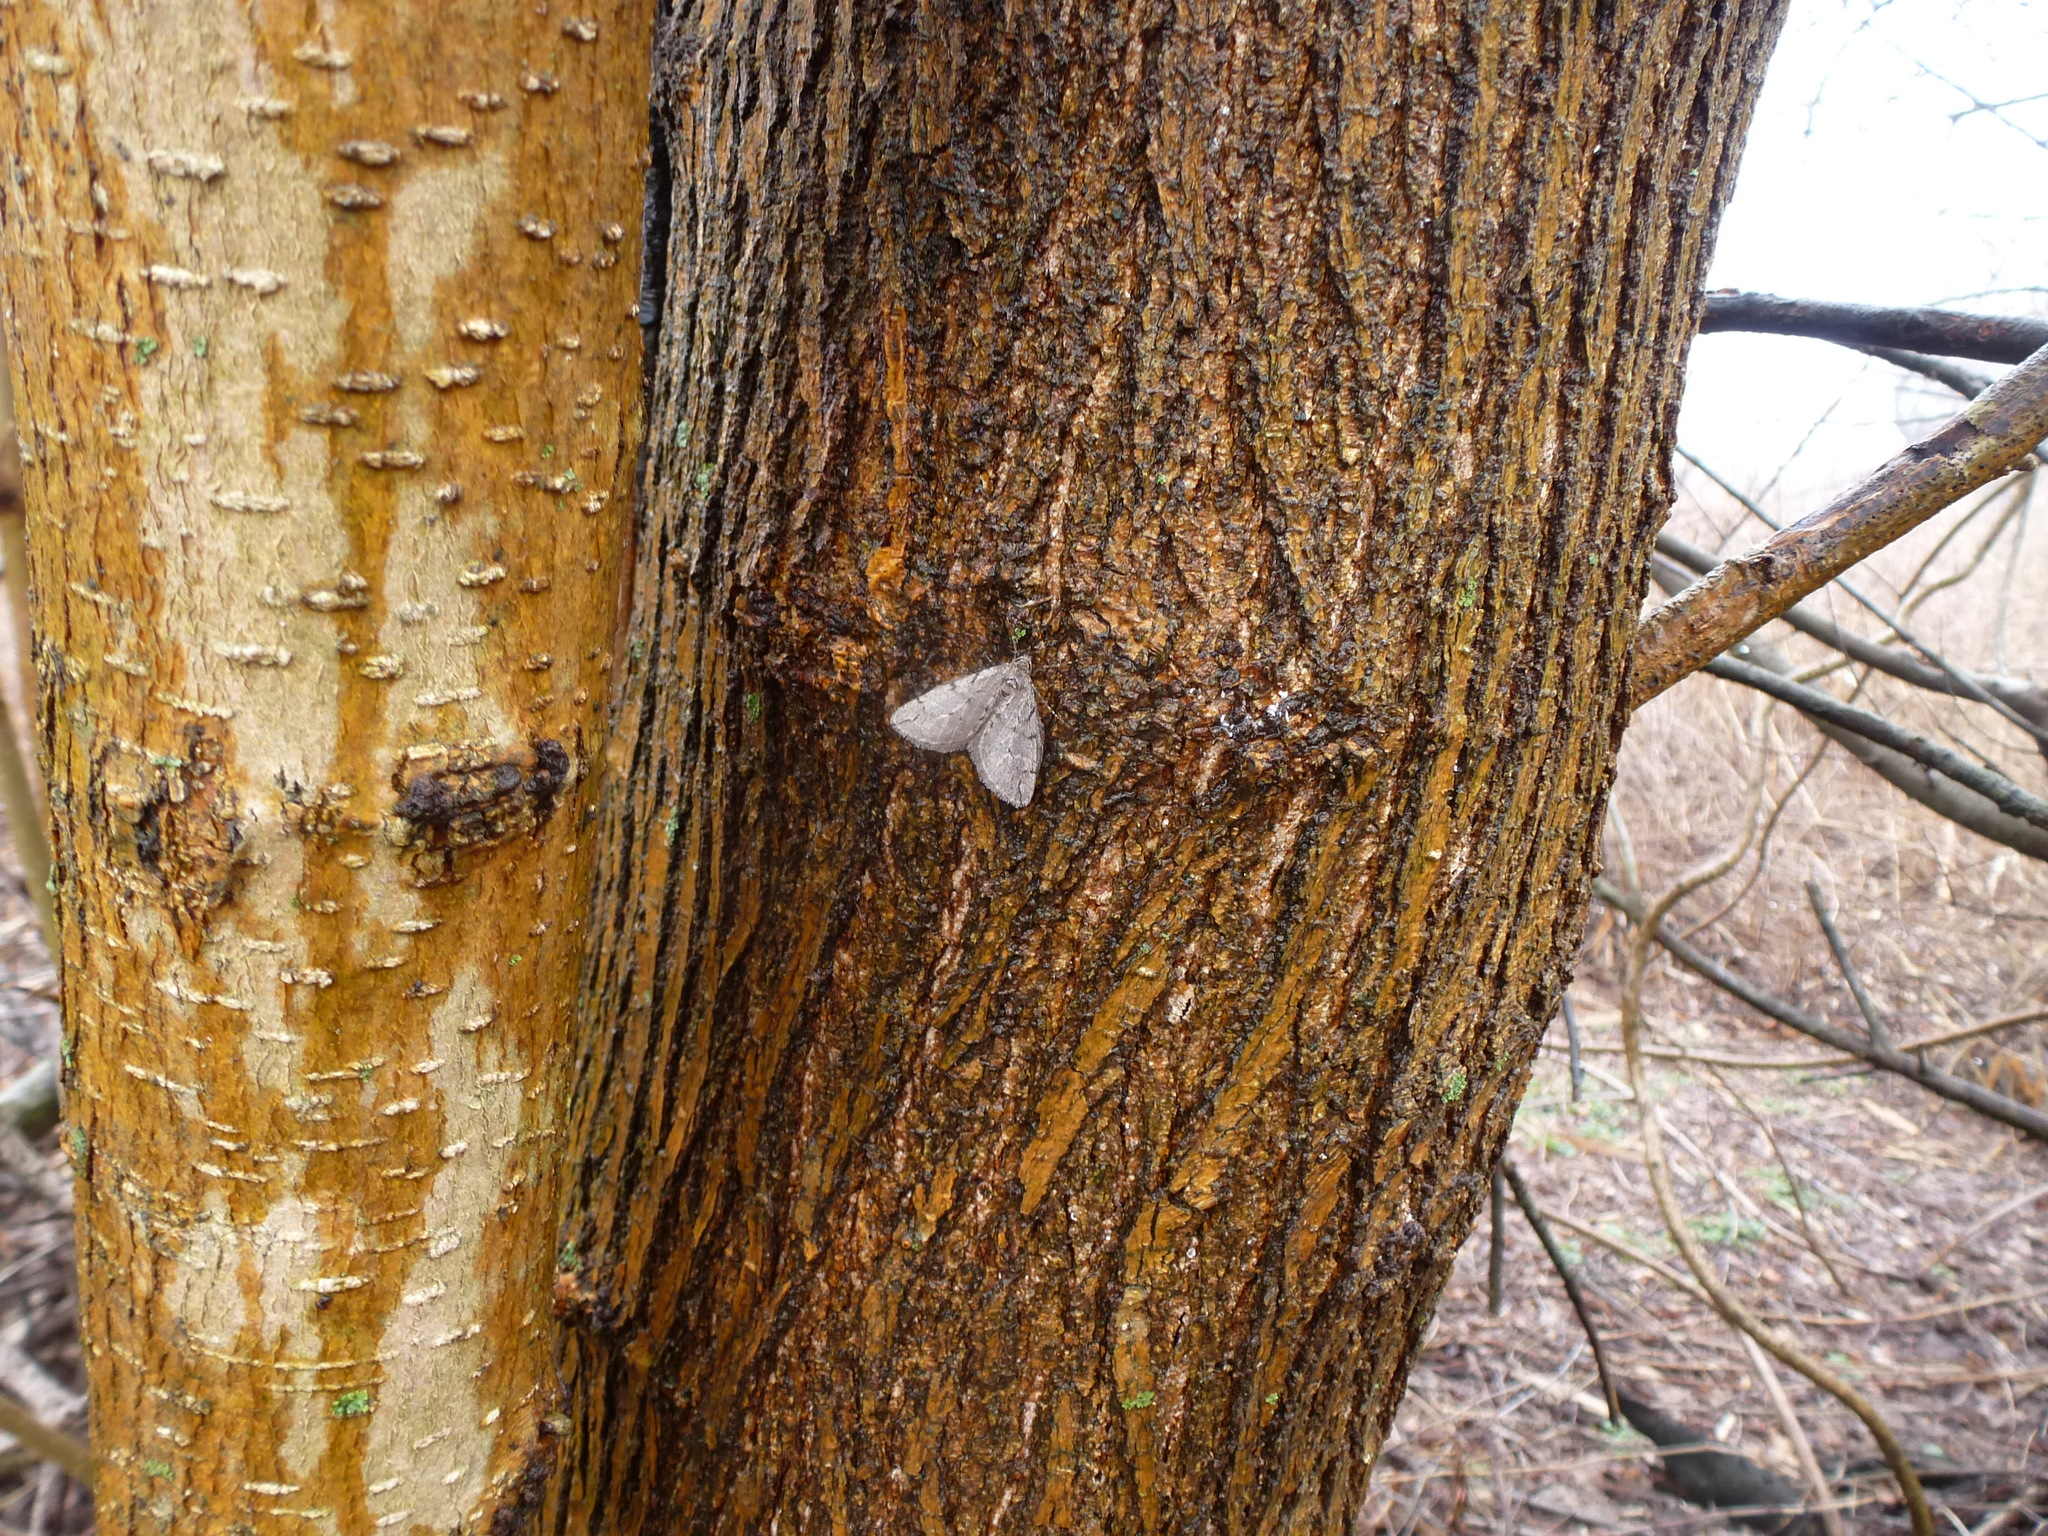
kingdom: Animalia
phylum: Arthropoda
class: Insecta
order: Lepidoptera
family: Geometridae
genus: Paleacrita
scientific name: Paleacrita vernata
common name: Spring cankerworm
